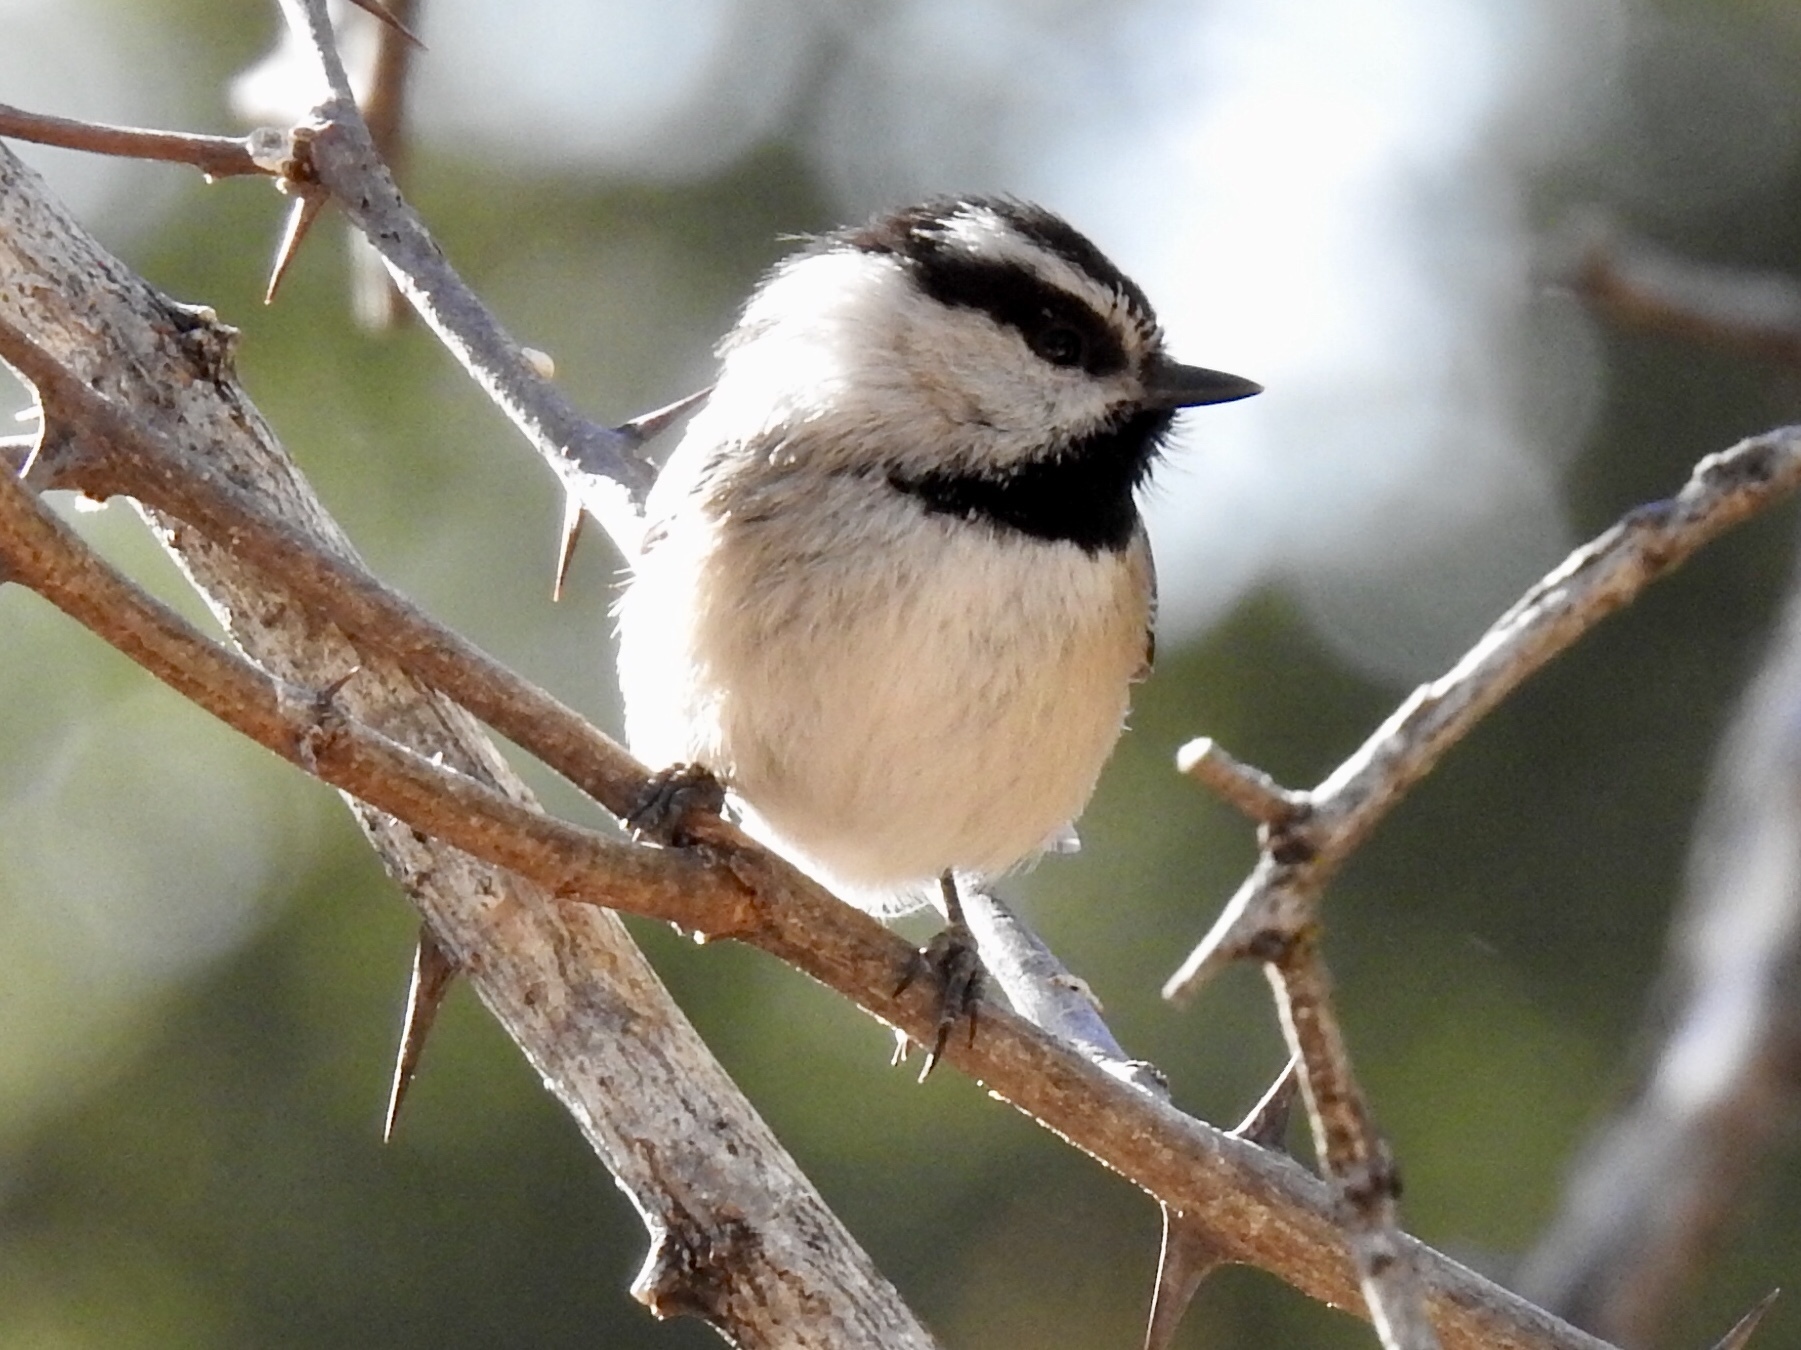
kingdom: Animalia
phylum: Chordata
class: Aves
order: Passeriformes
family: Paridae
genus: Poecile
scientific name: Poecile gambeli
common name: Mountain chickadee
